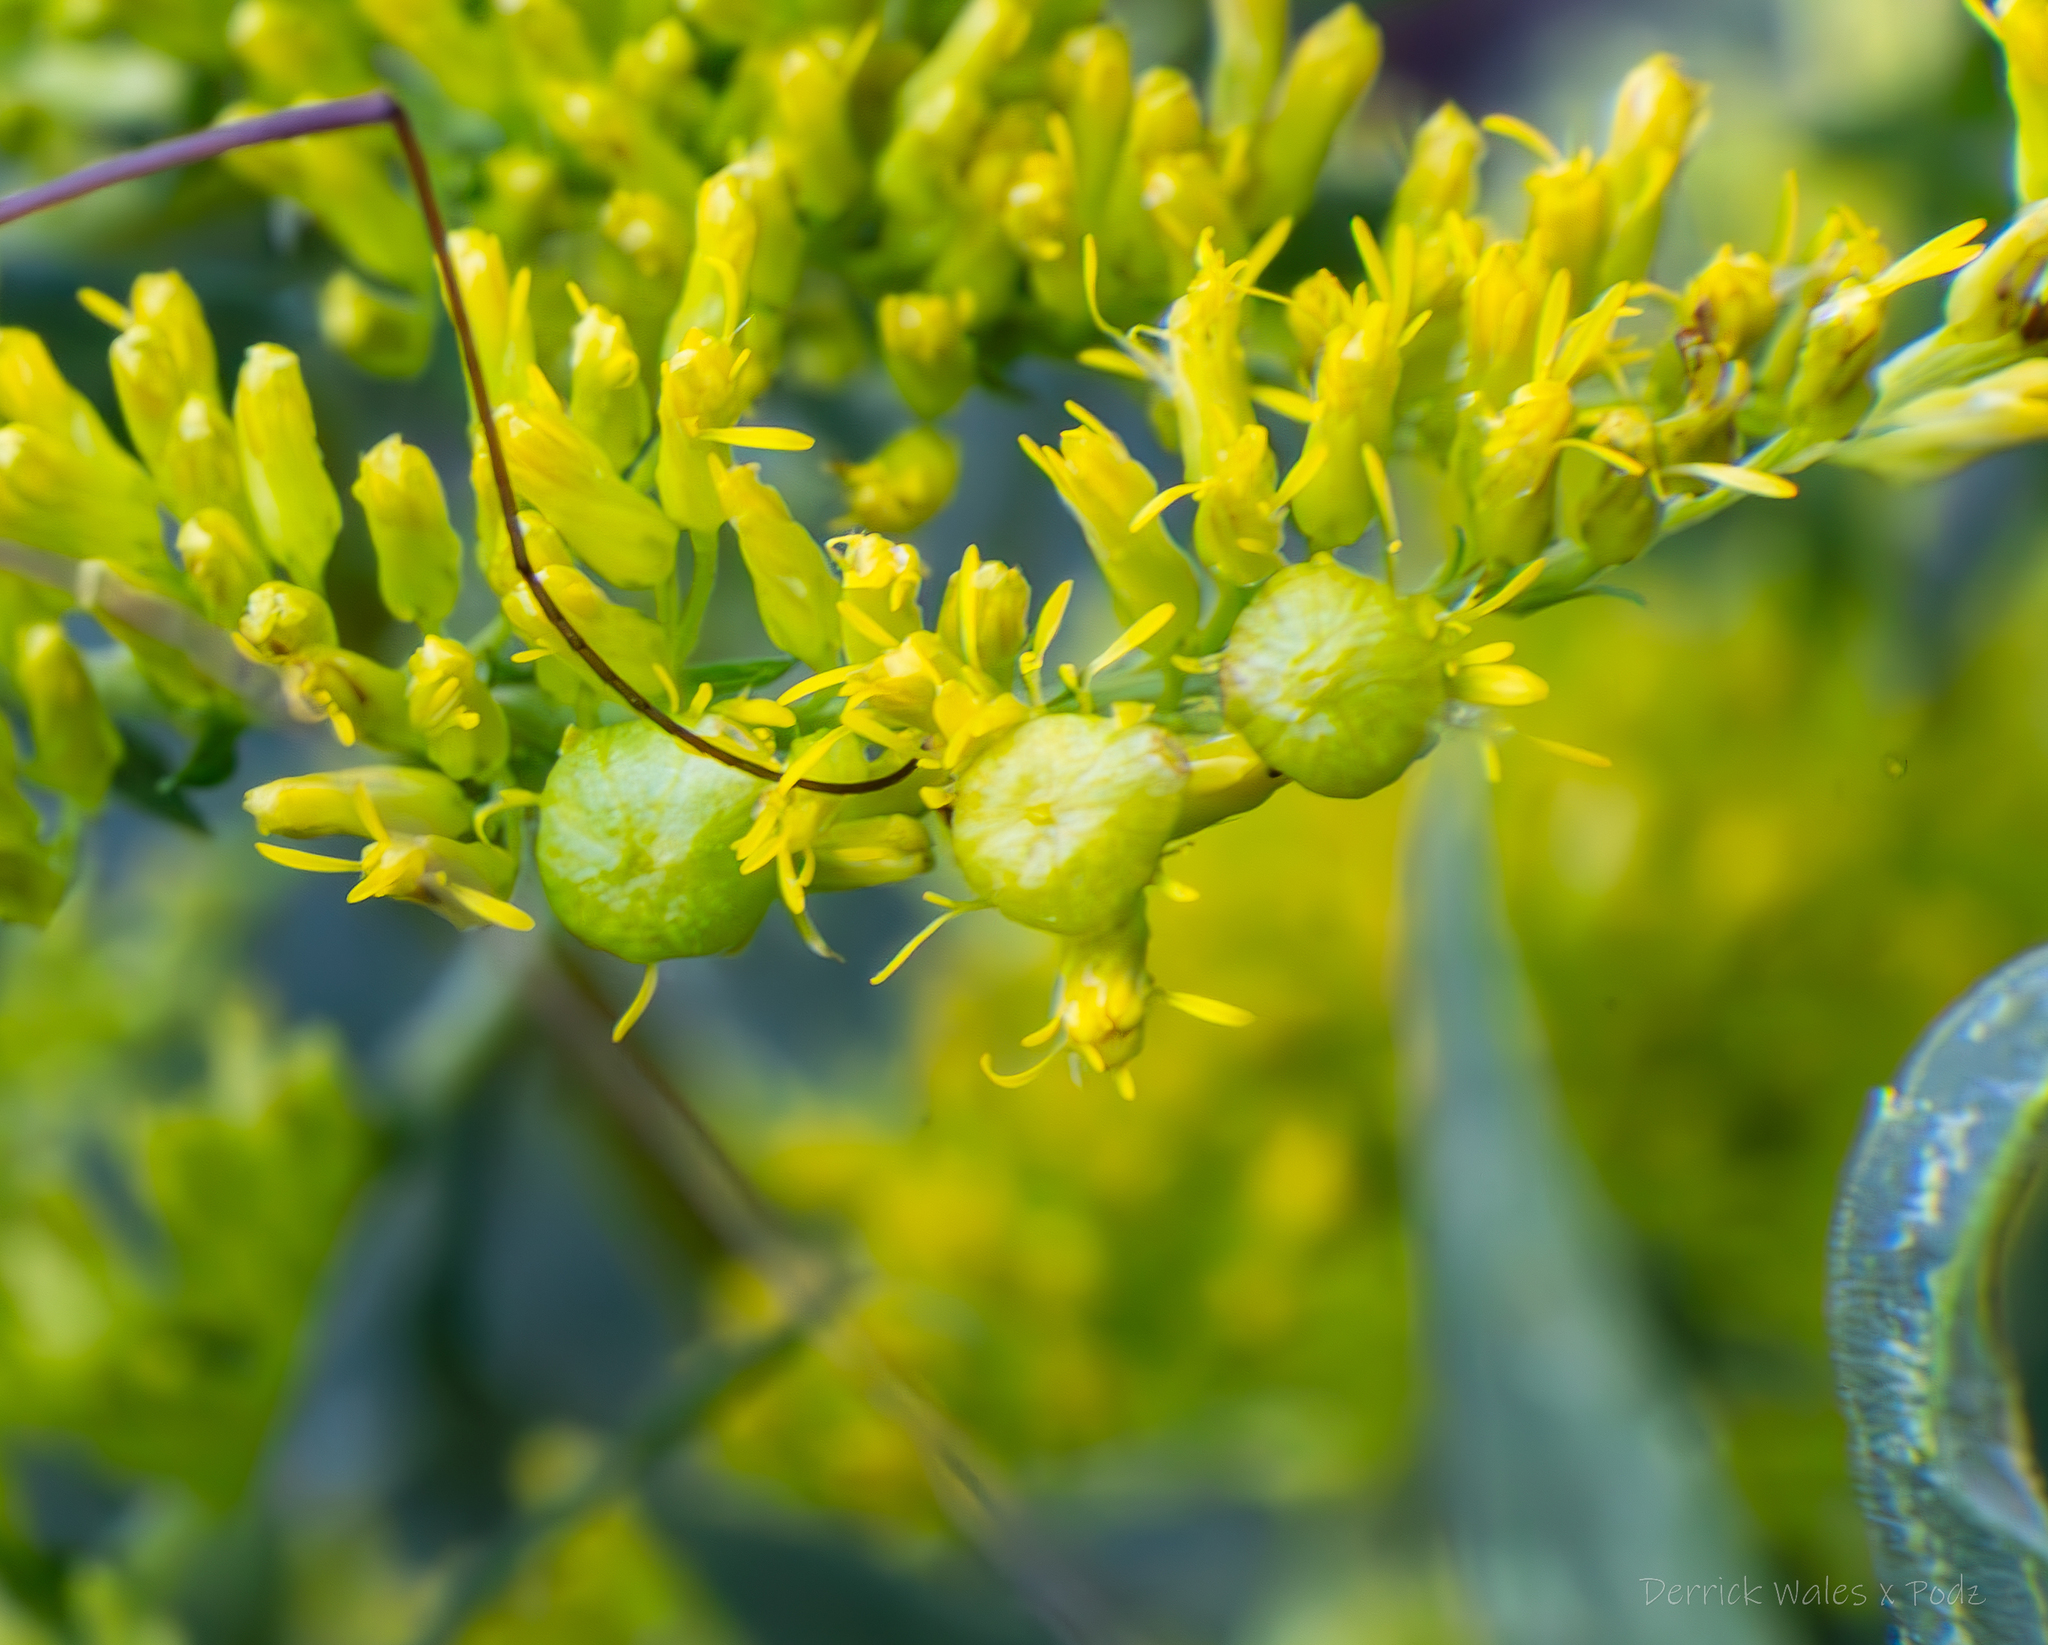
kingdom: Animalia
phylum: Arthropoda
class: Insecta
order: Diptera
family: Cecidomyiidae
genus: Schizomyia
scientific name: Schizomyia racemicola
